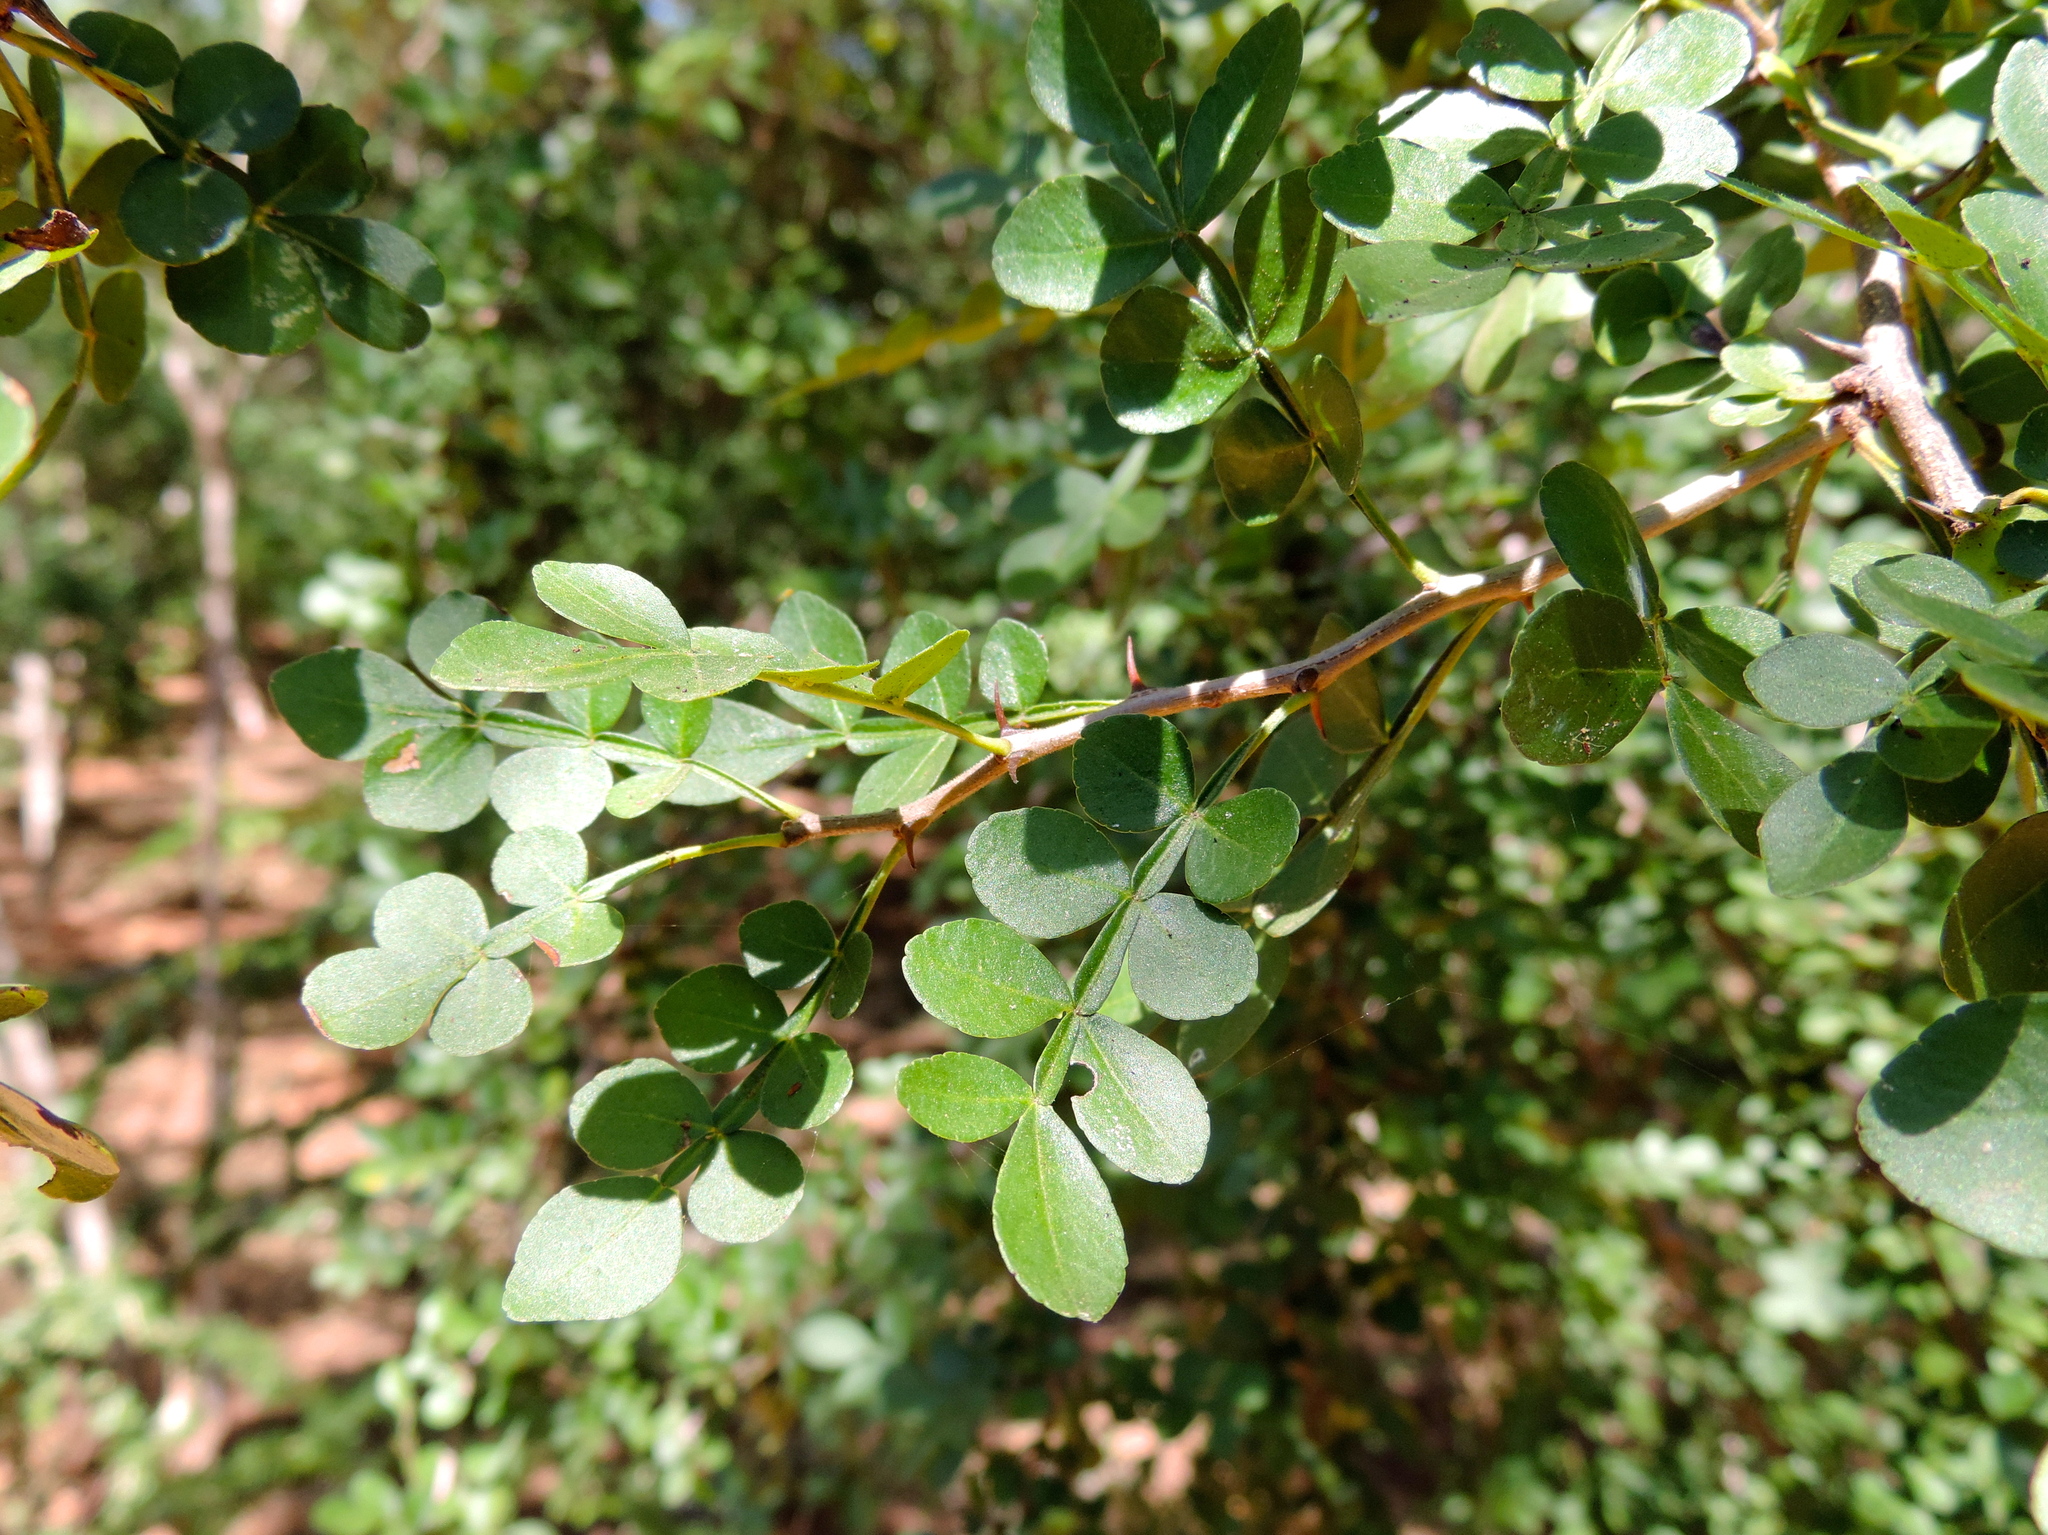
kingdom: Plantae
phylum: Tracheophyta
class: Magnoliopsida
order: Sapindales
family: Rutaceae
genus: Zanthoxylum
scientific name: Zanthoxylum fagara
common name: Lime prickly-ash
